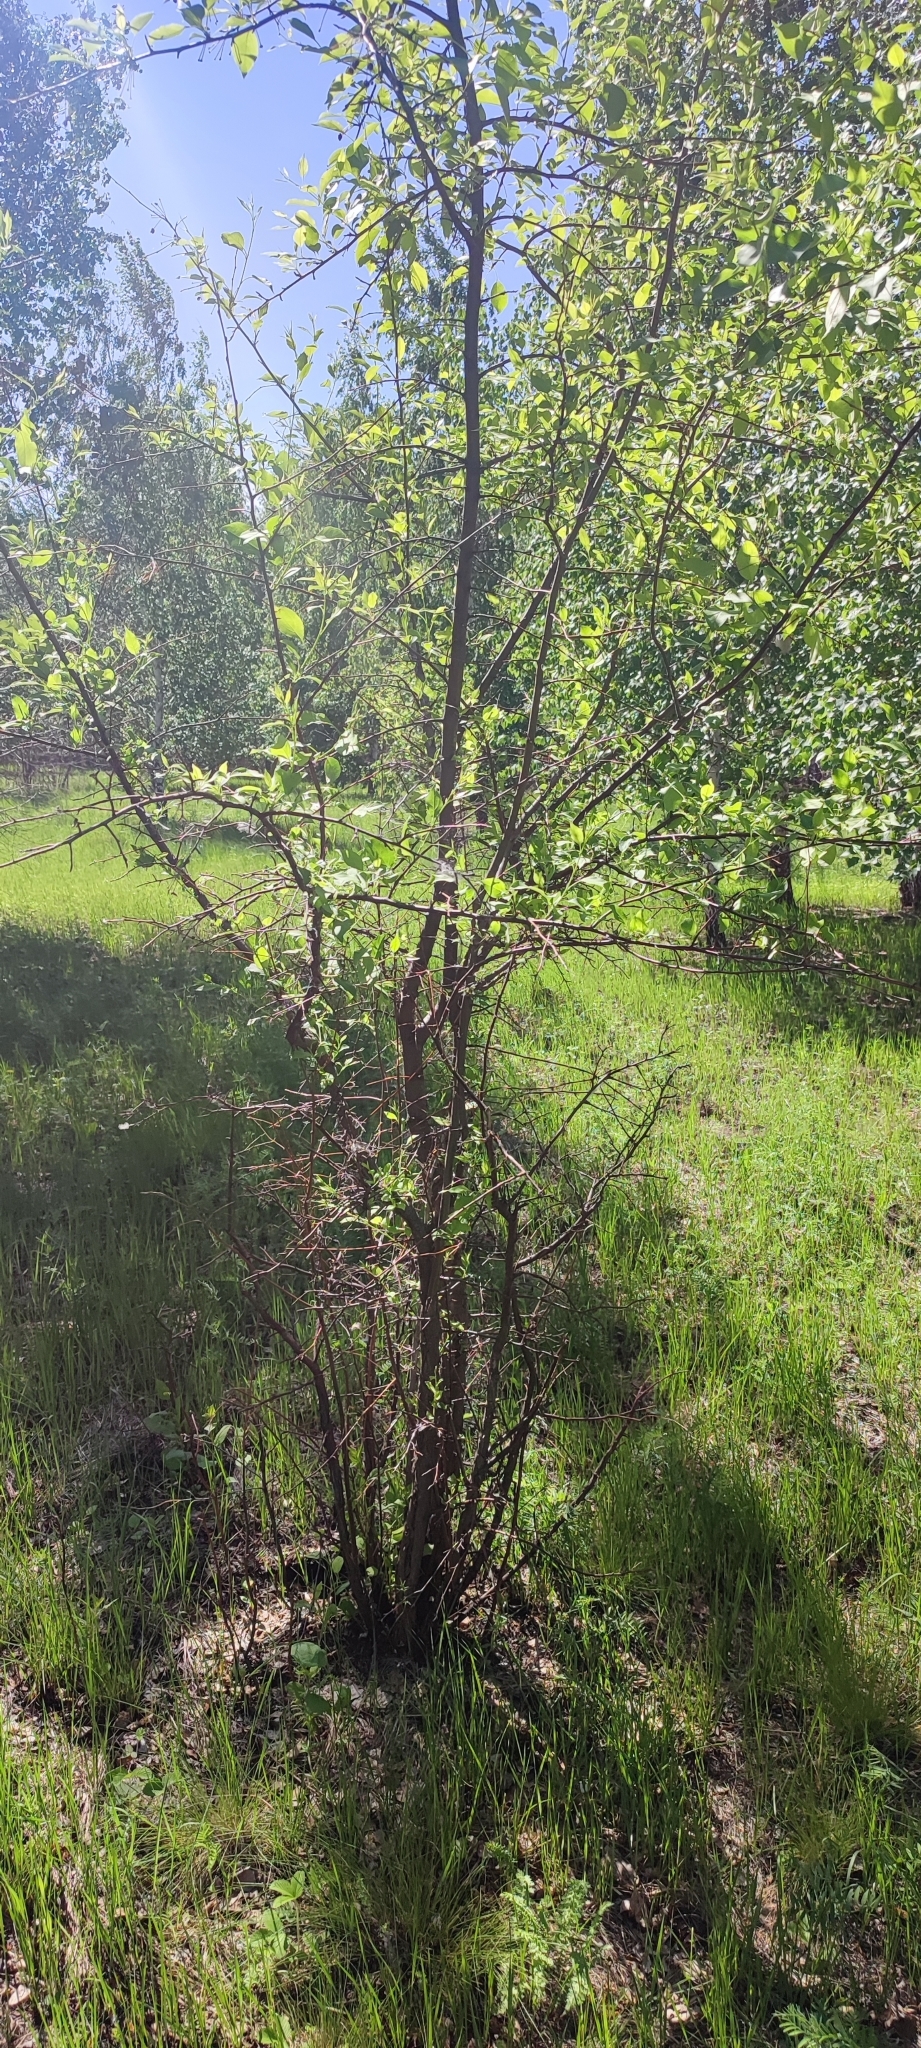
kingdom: Plantae
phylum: Tracheophyta
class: Magnoliopsida
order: Rosales
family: Rosaceae
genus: Malus
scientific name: Malus baccata
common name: Siberian crab
